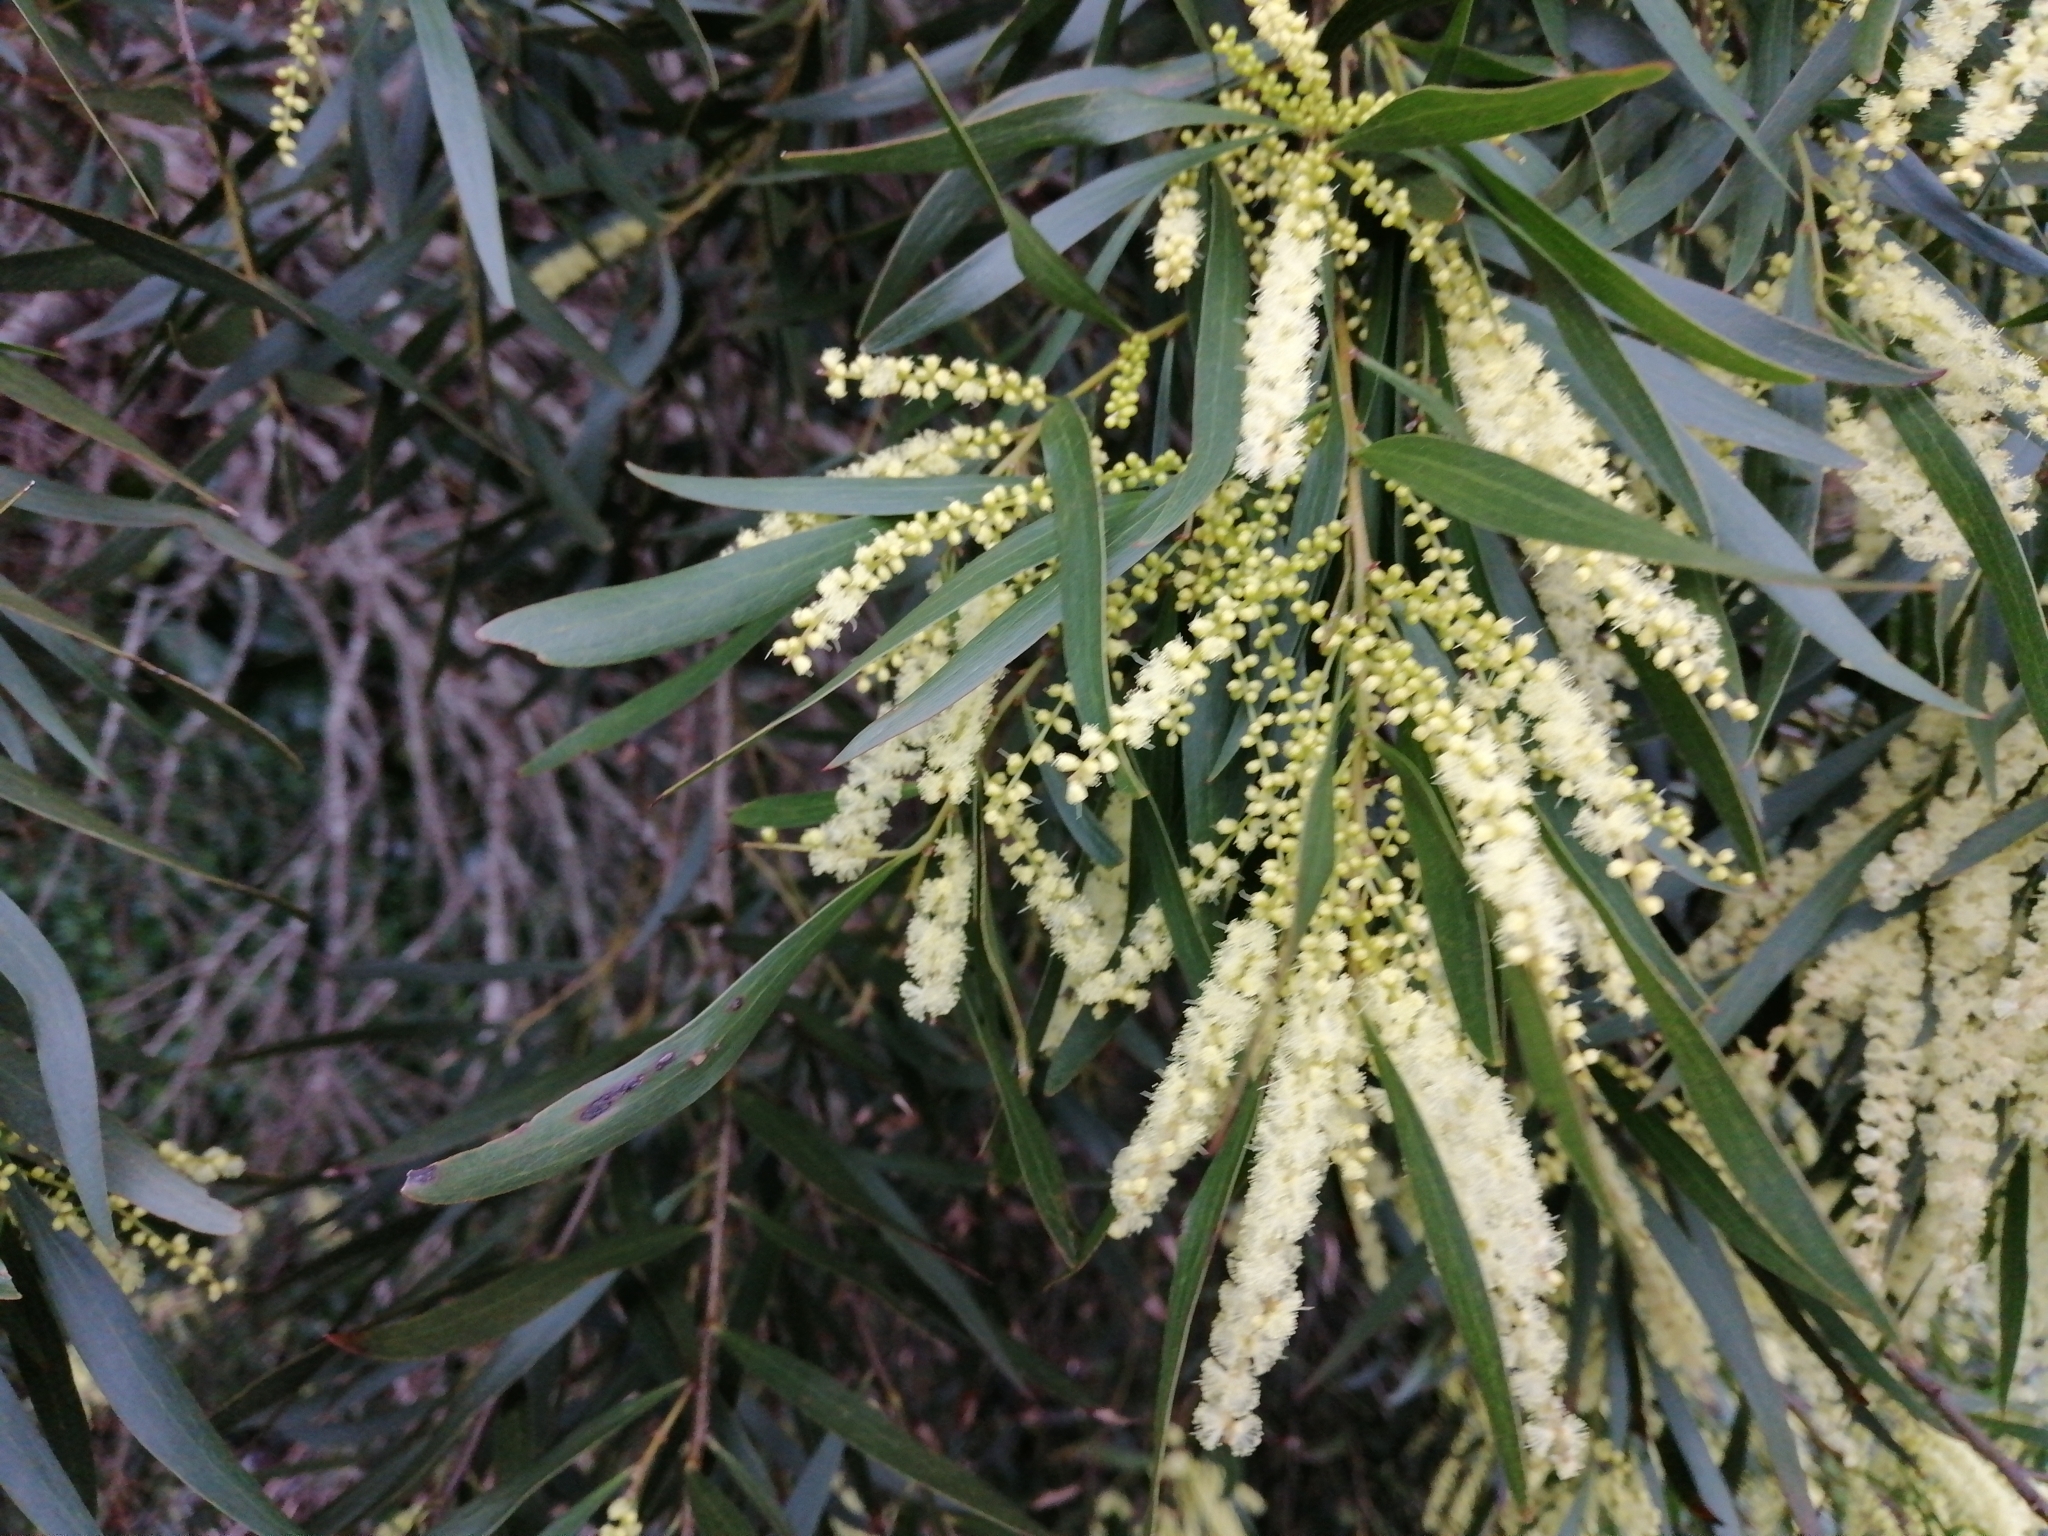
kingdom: Plantae
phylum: Tracheophyta
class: Magnoliopsida
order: Fabales
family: Fabaceae
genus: Acacia
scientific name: Acacia longifolia
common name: Sydney golden wattle
